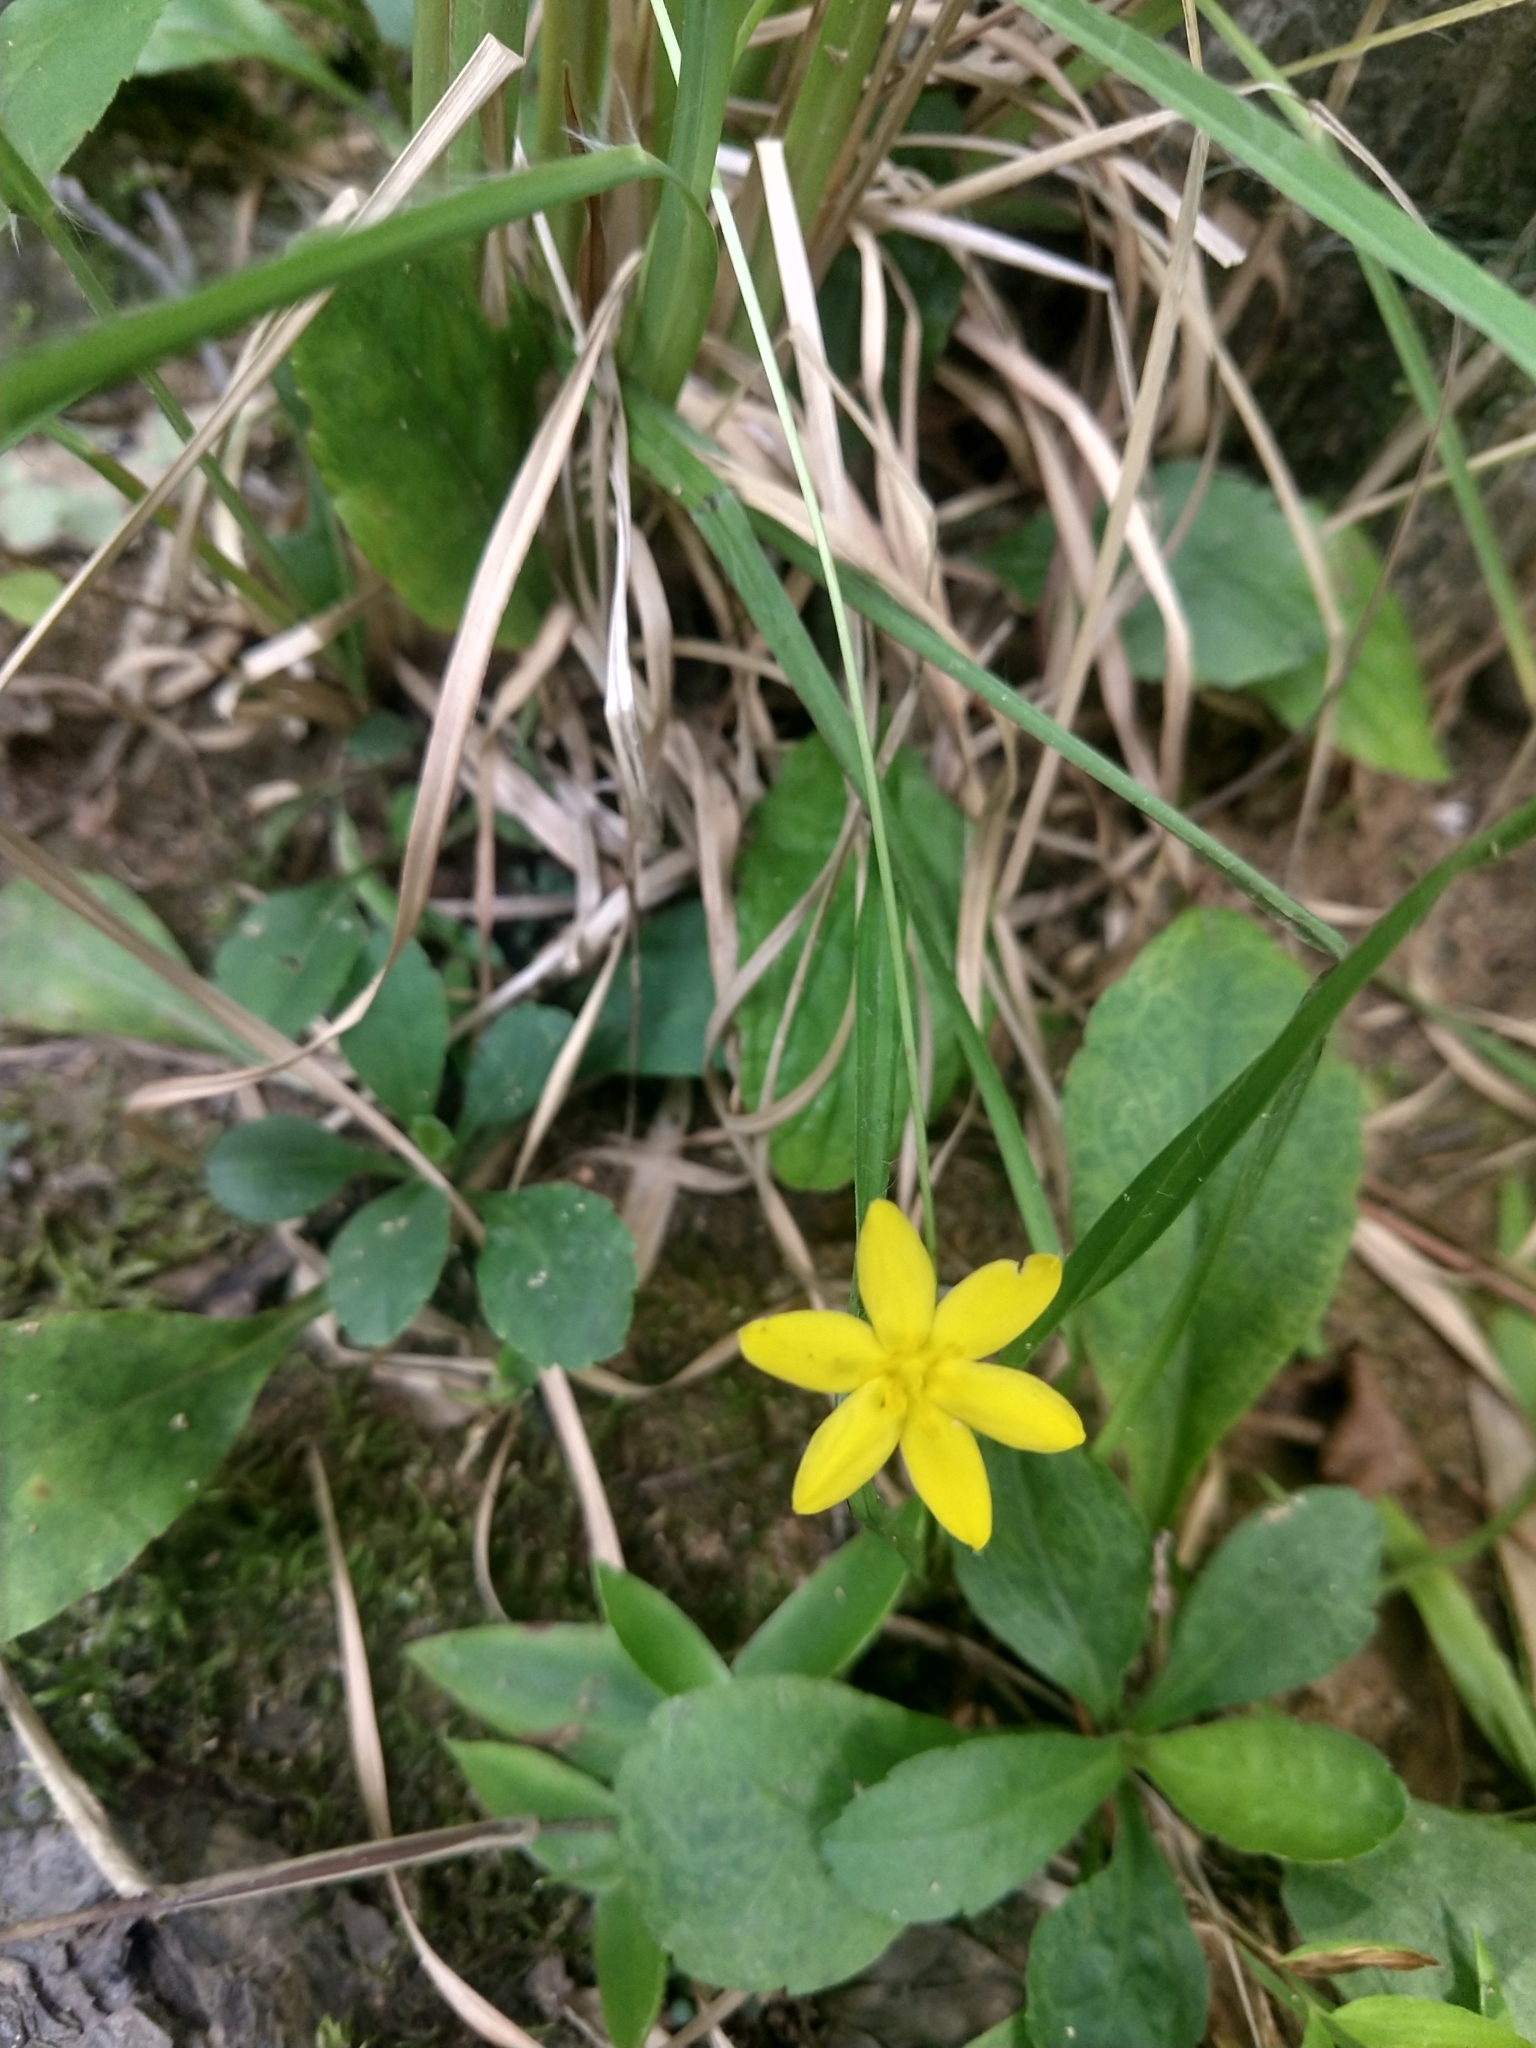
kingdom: Plantae
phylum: Tracheophyta
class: Liliopsida
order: Asparagales
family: Hypoxidaceae
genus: Hypoxis
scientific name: Hypoxis hirsuta
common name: Common goldstar
